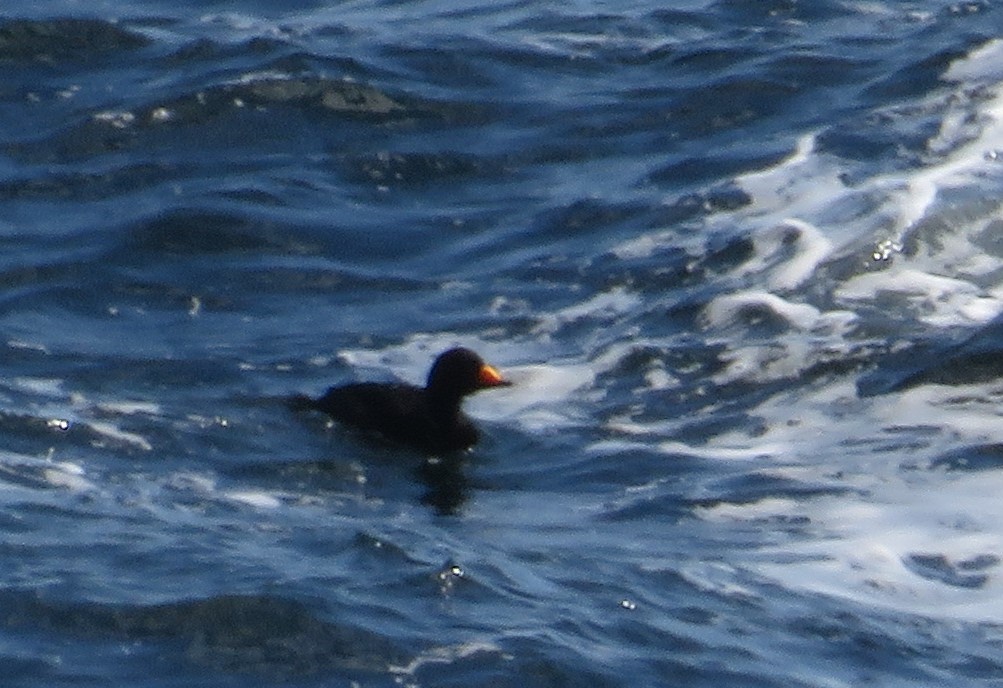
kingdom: Animalia
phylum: Chordata
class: Aves
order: Anseriformes
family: Anatidae
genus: Melanitta
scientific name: Melanitta americana
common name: Black scoter
